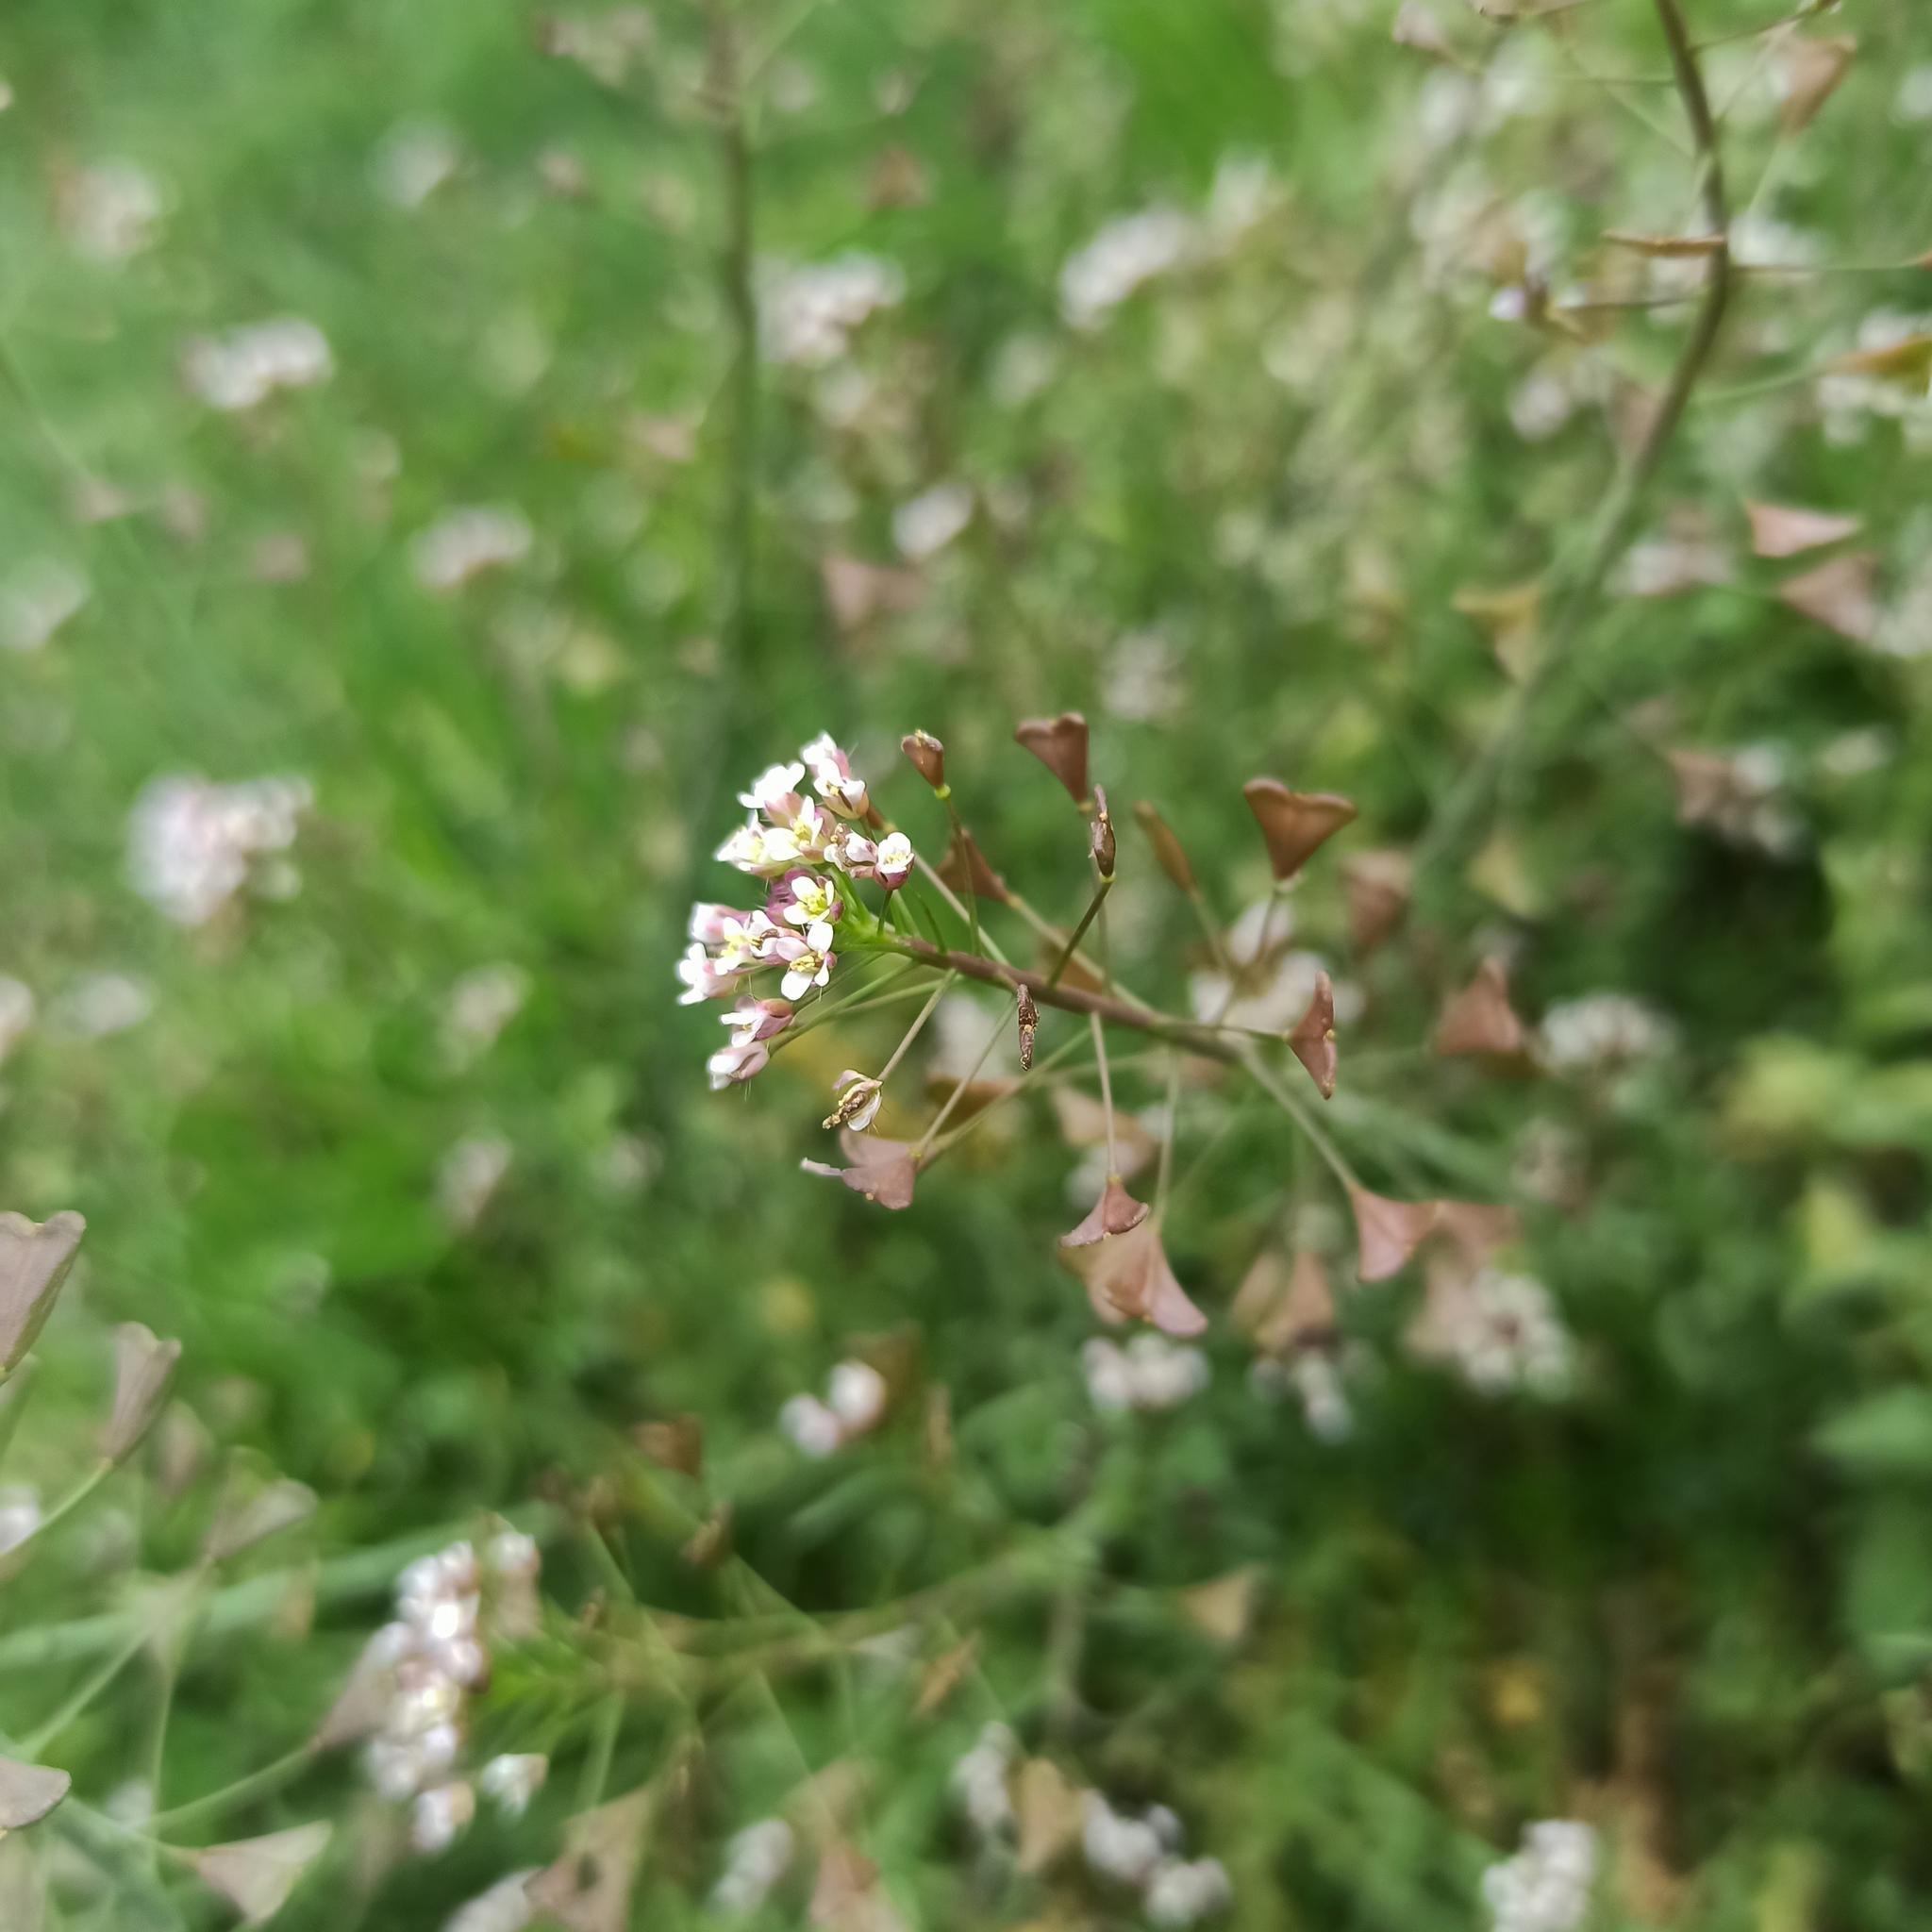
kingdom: Plantae
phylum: Tracheophyta
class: Magnoliopsida
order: Brassicales
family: Brassicaceae
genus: Capsella
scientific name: Capsella bursa-pastoris
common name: Shepherd's purse
